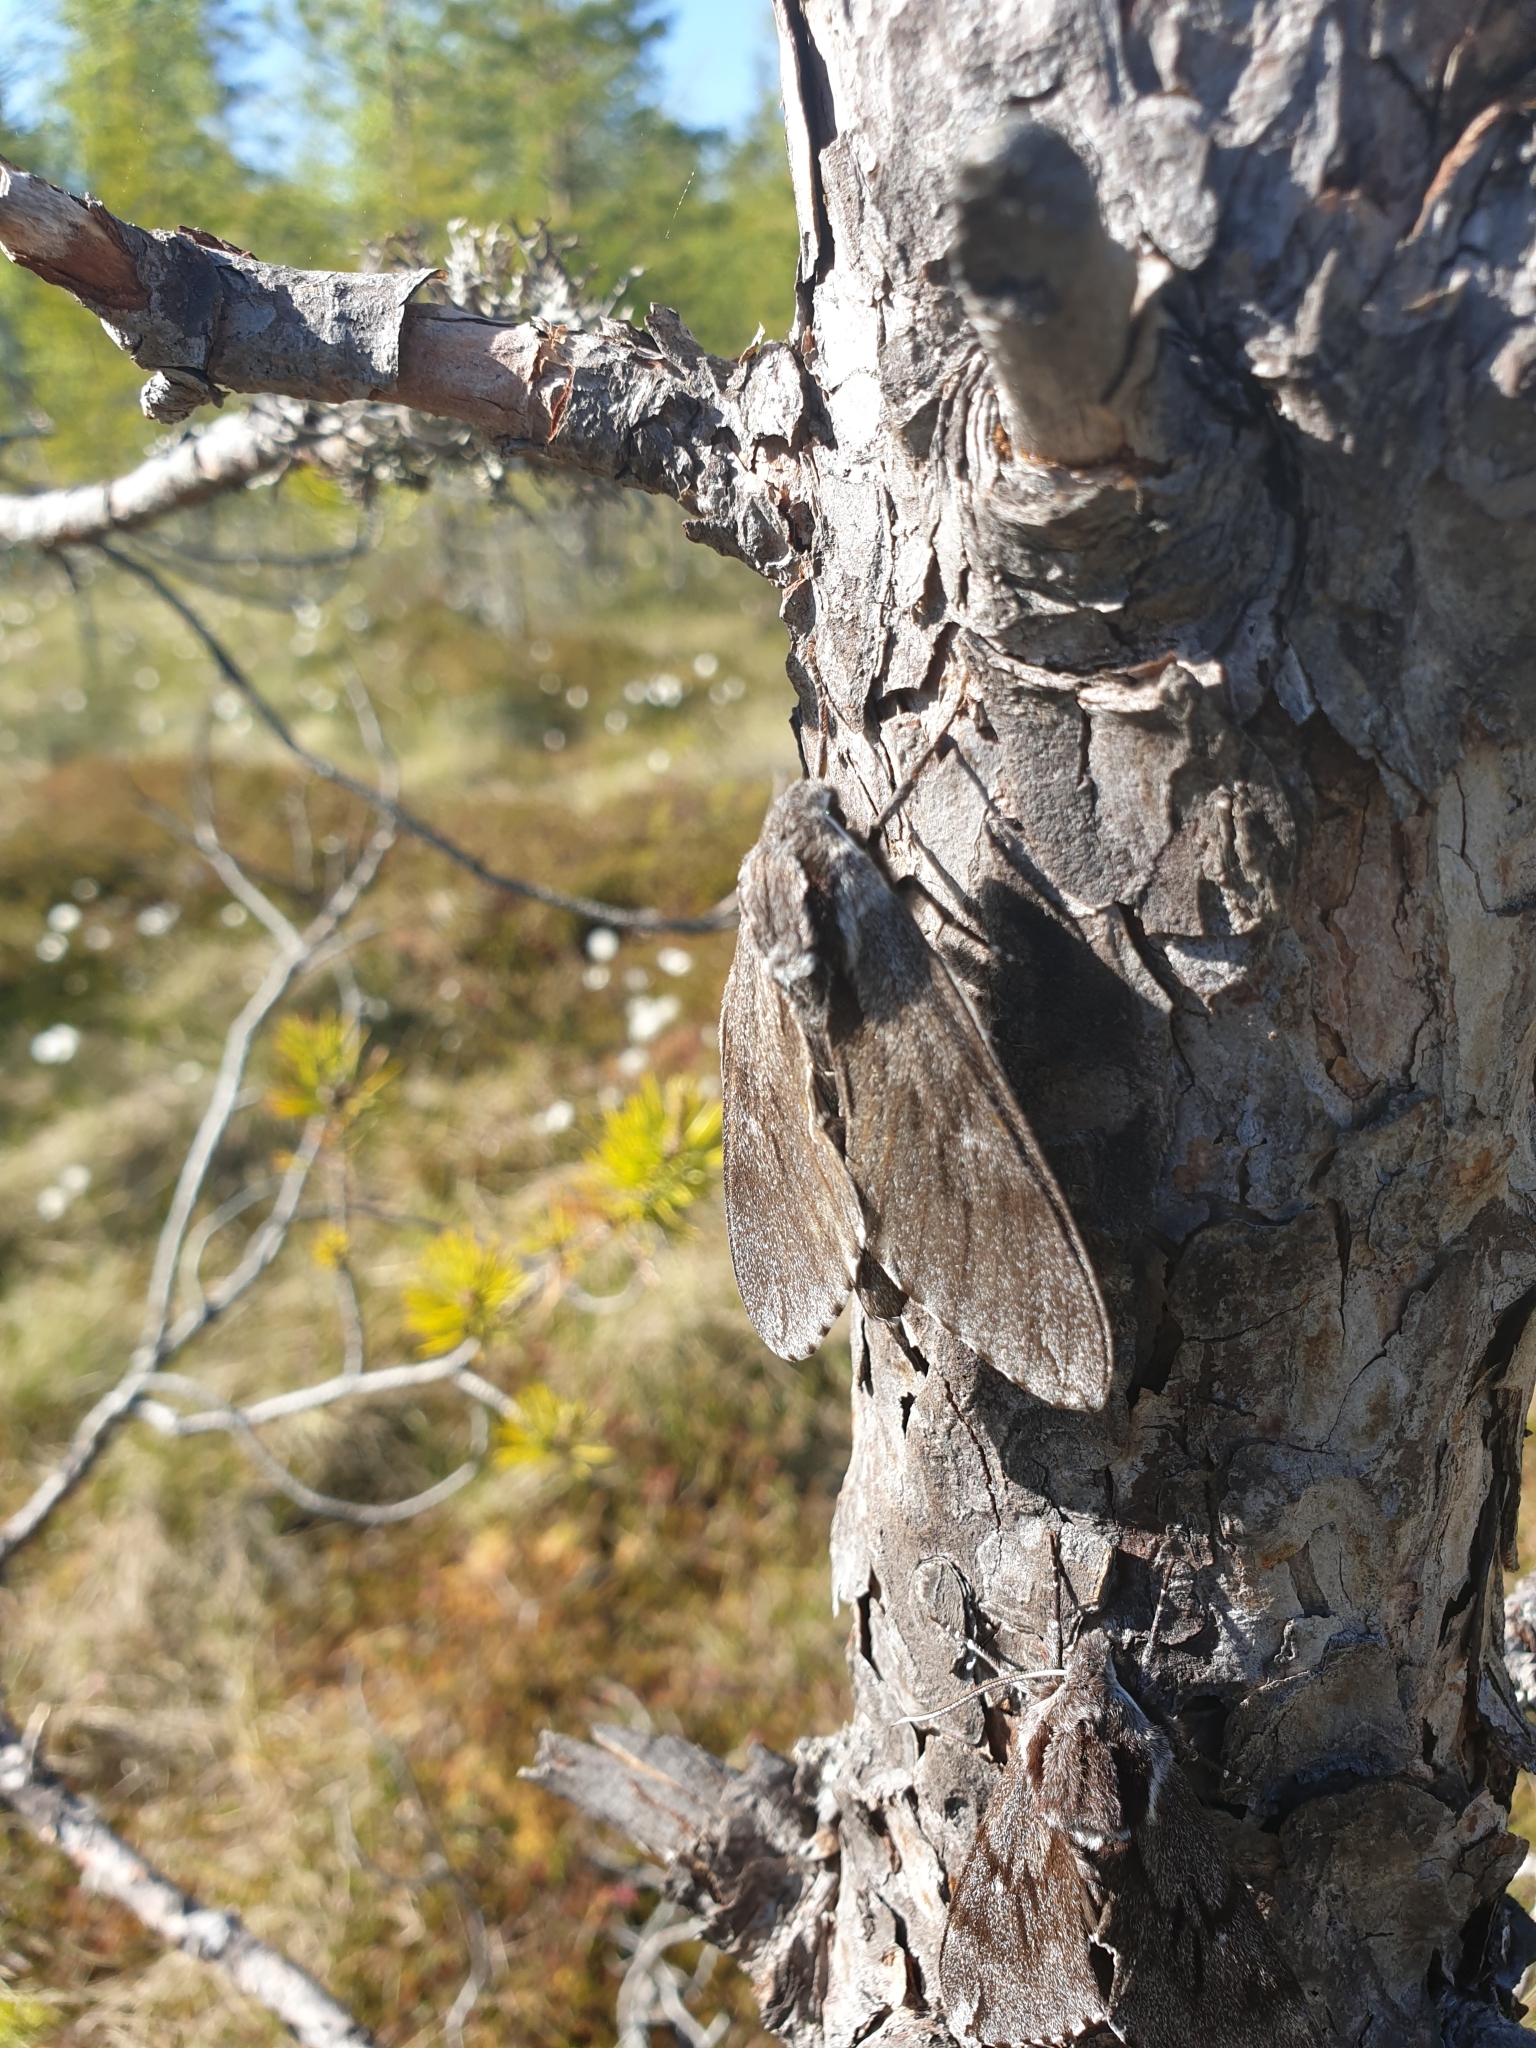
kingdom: Animalia
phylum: Arthropoda
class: Insecta
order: Lepidoptera
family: Sphingidae
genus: Sphinx
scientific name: Sphinx pinastri
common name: Pine hawk-moth
